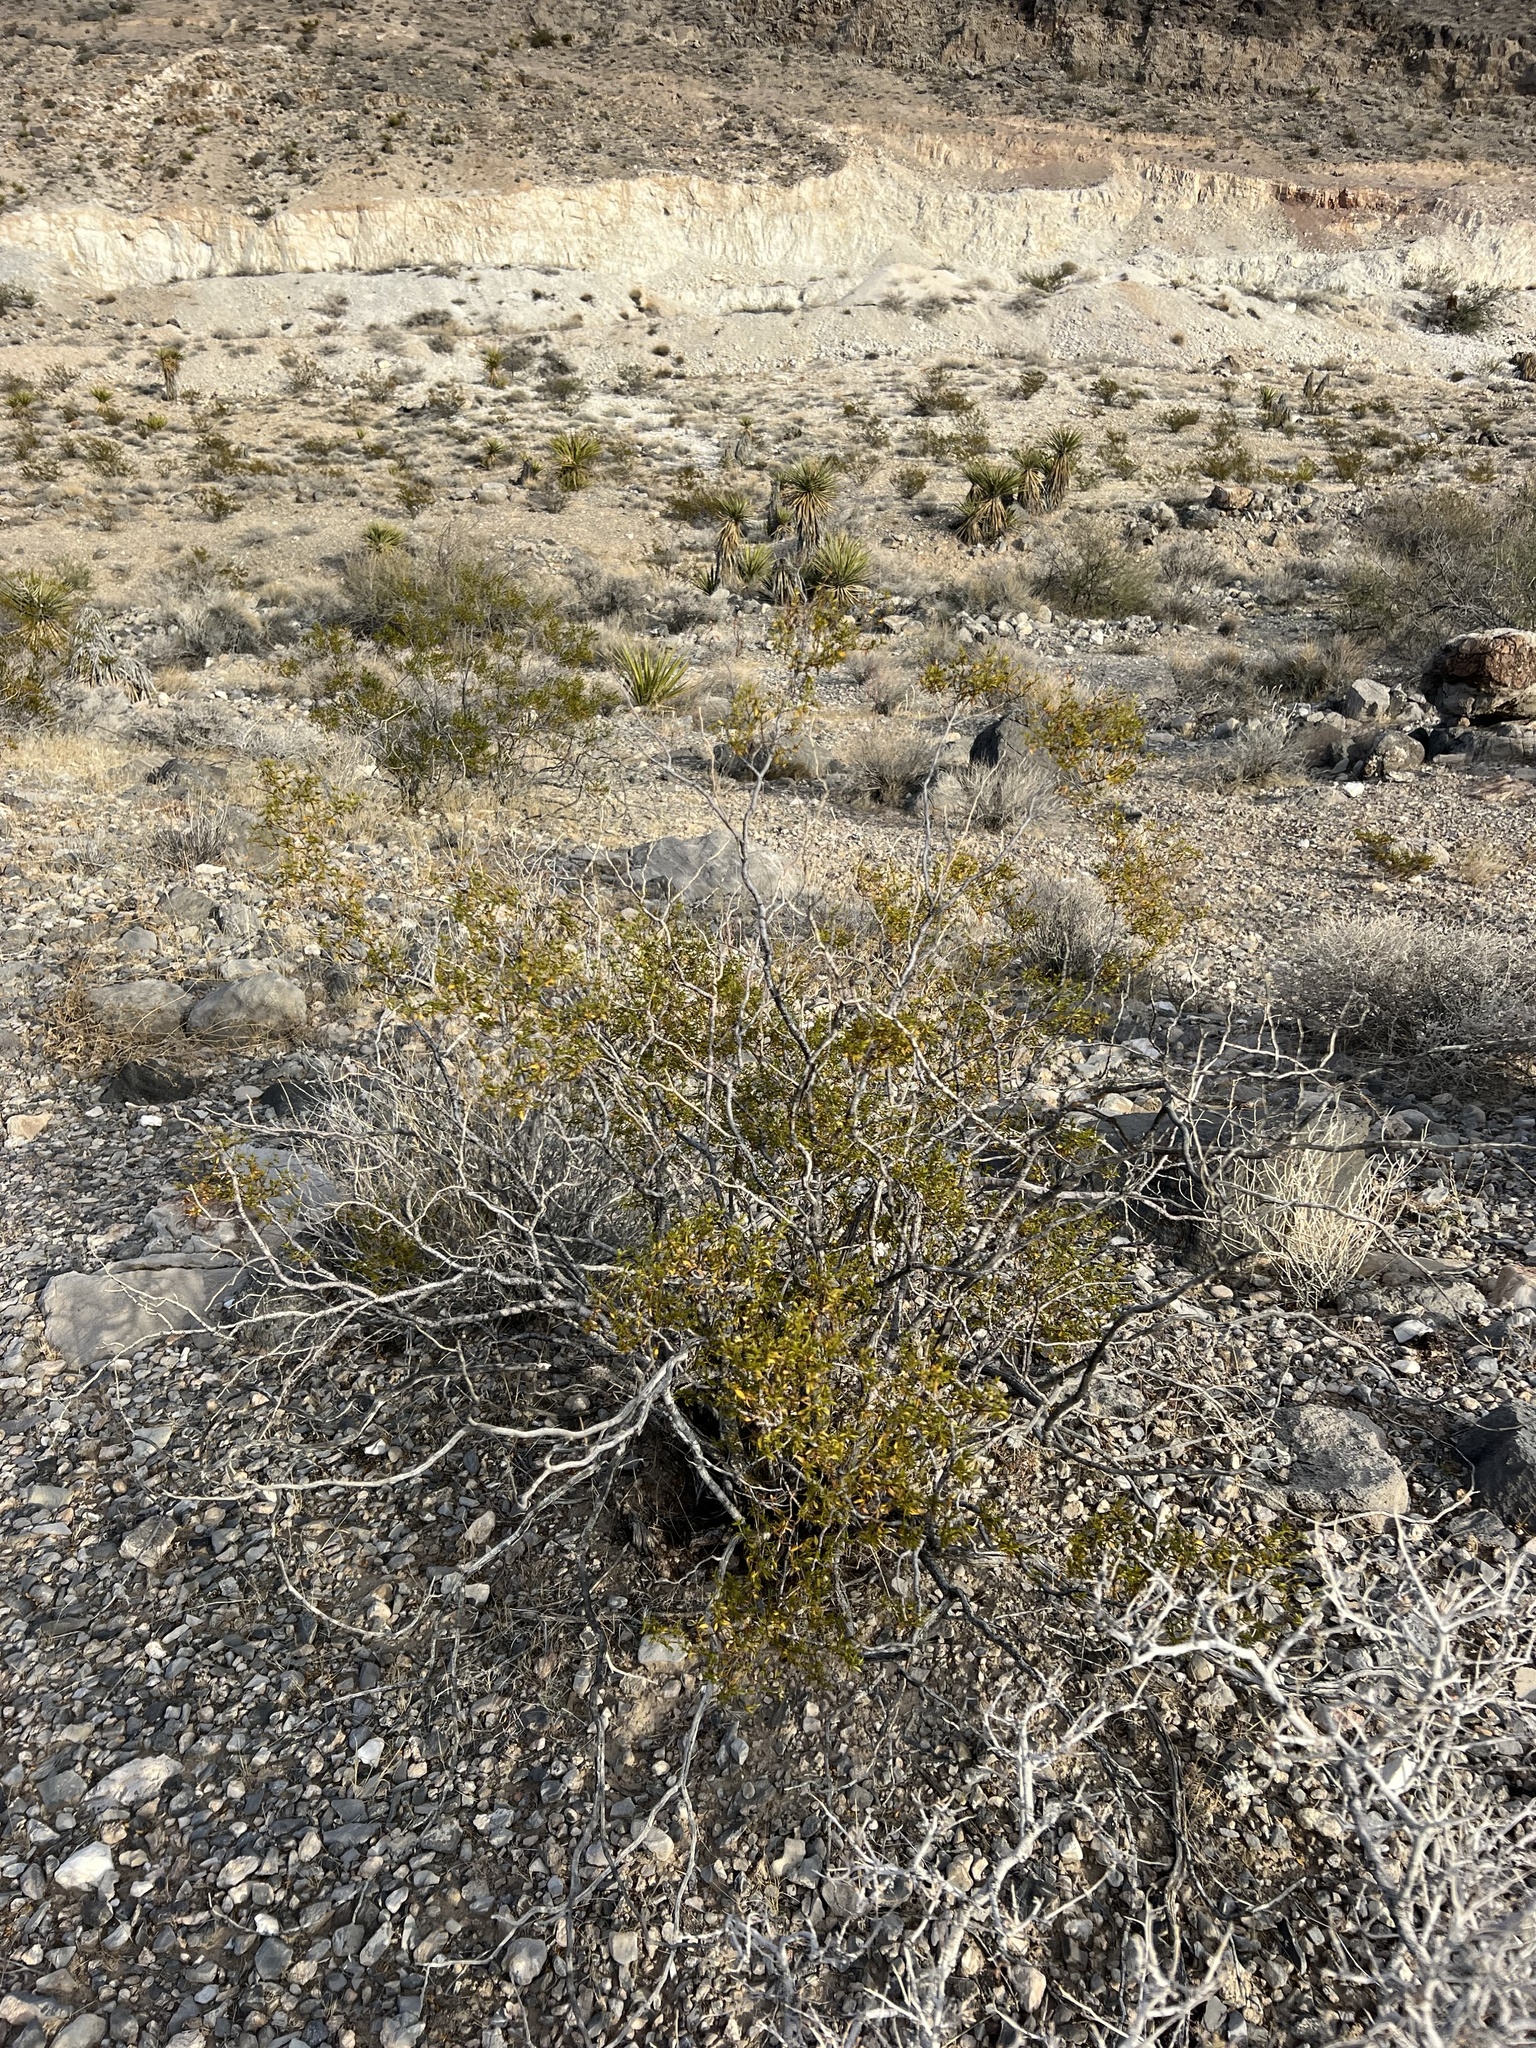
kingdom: Plantae
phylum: Tracheophyta
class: Magnoliopsida
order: Zygophyllales
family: Zygophyllaceae
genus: Larrea
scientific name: Larrea tridentata
